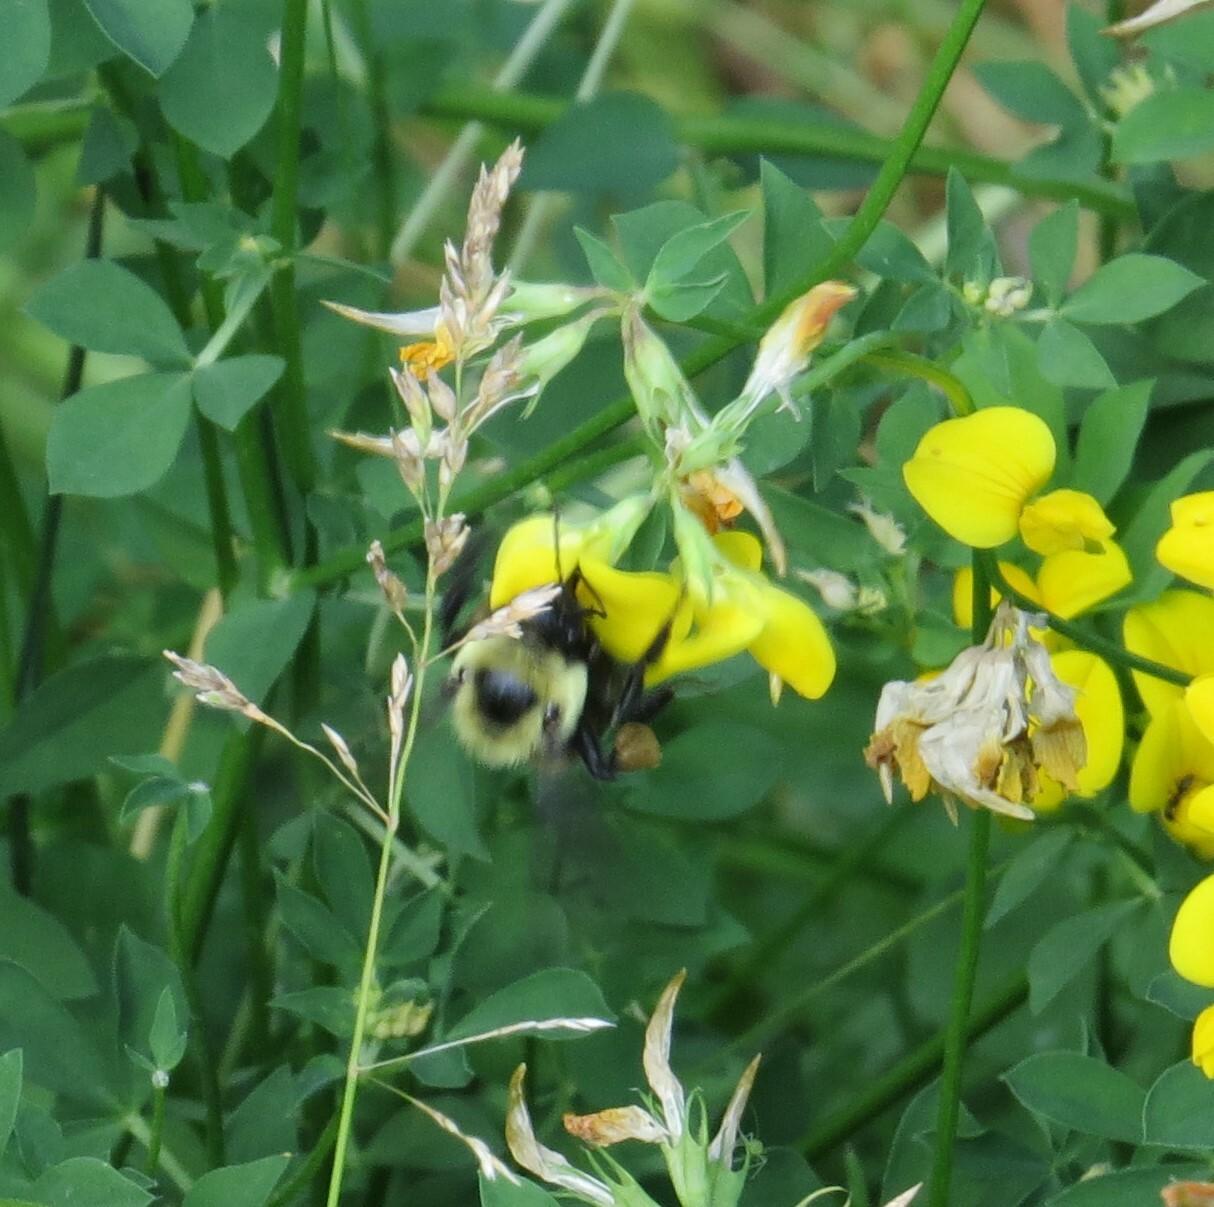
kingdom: Animalia
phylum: Arthropoda
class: Insecta
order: Hymenoptera
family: Apidae
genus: Bombus
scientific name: Bombus griseocollis
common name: Brown-belted bumble bee
